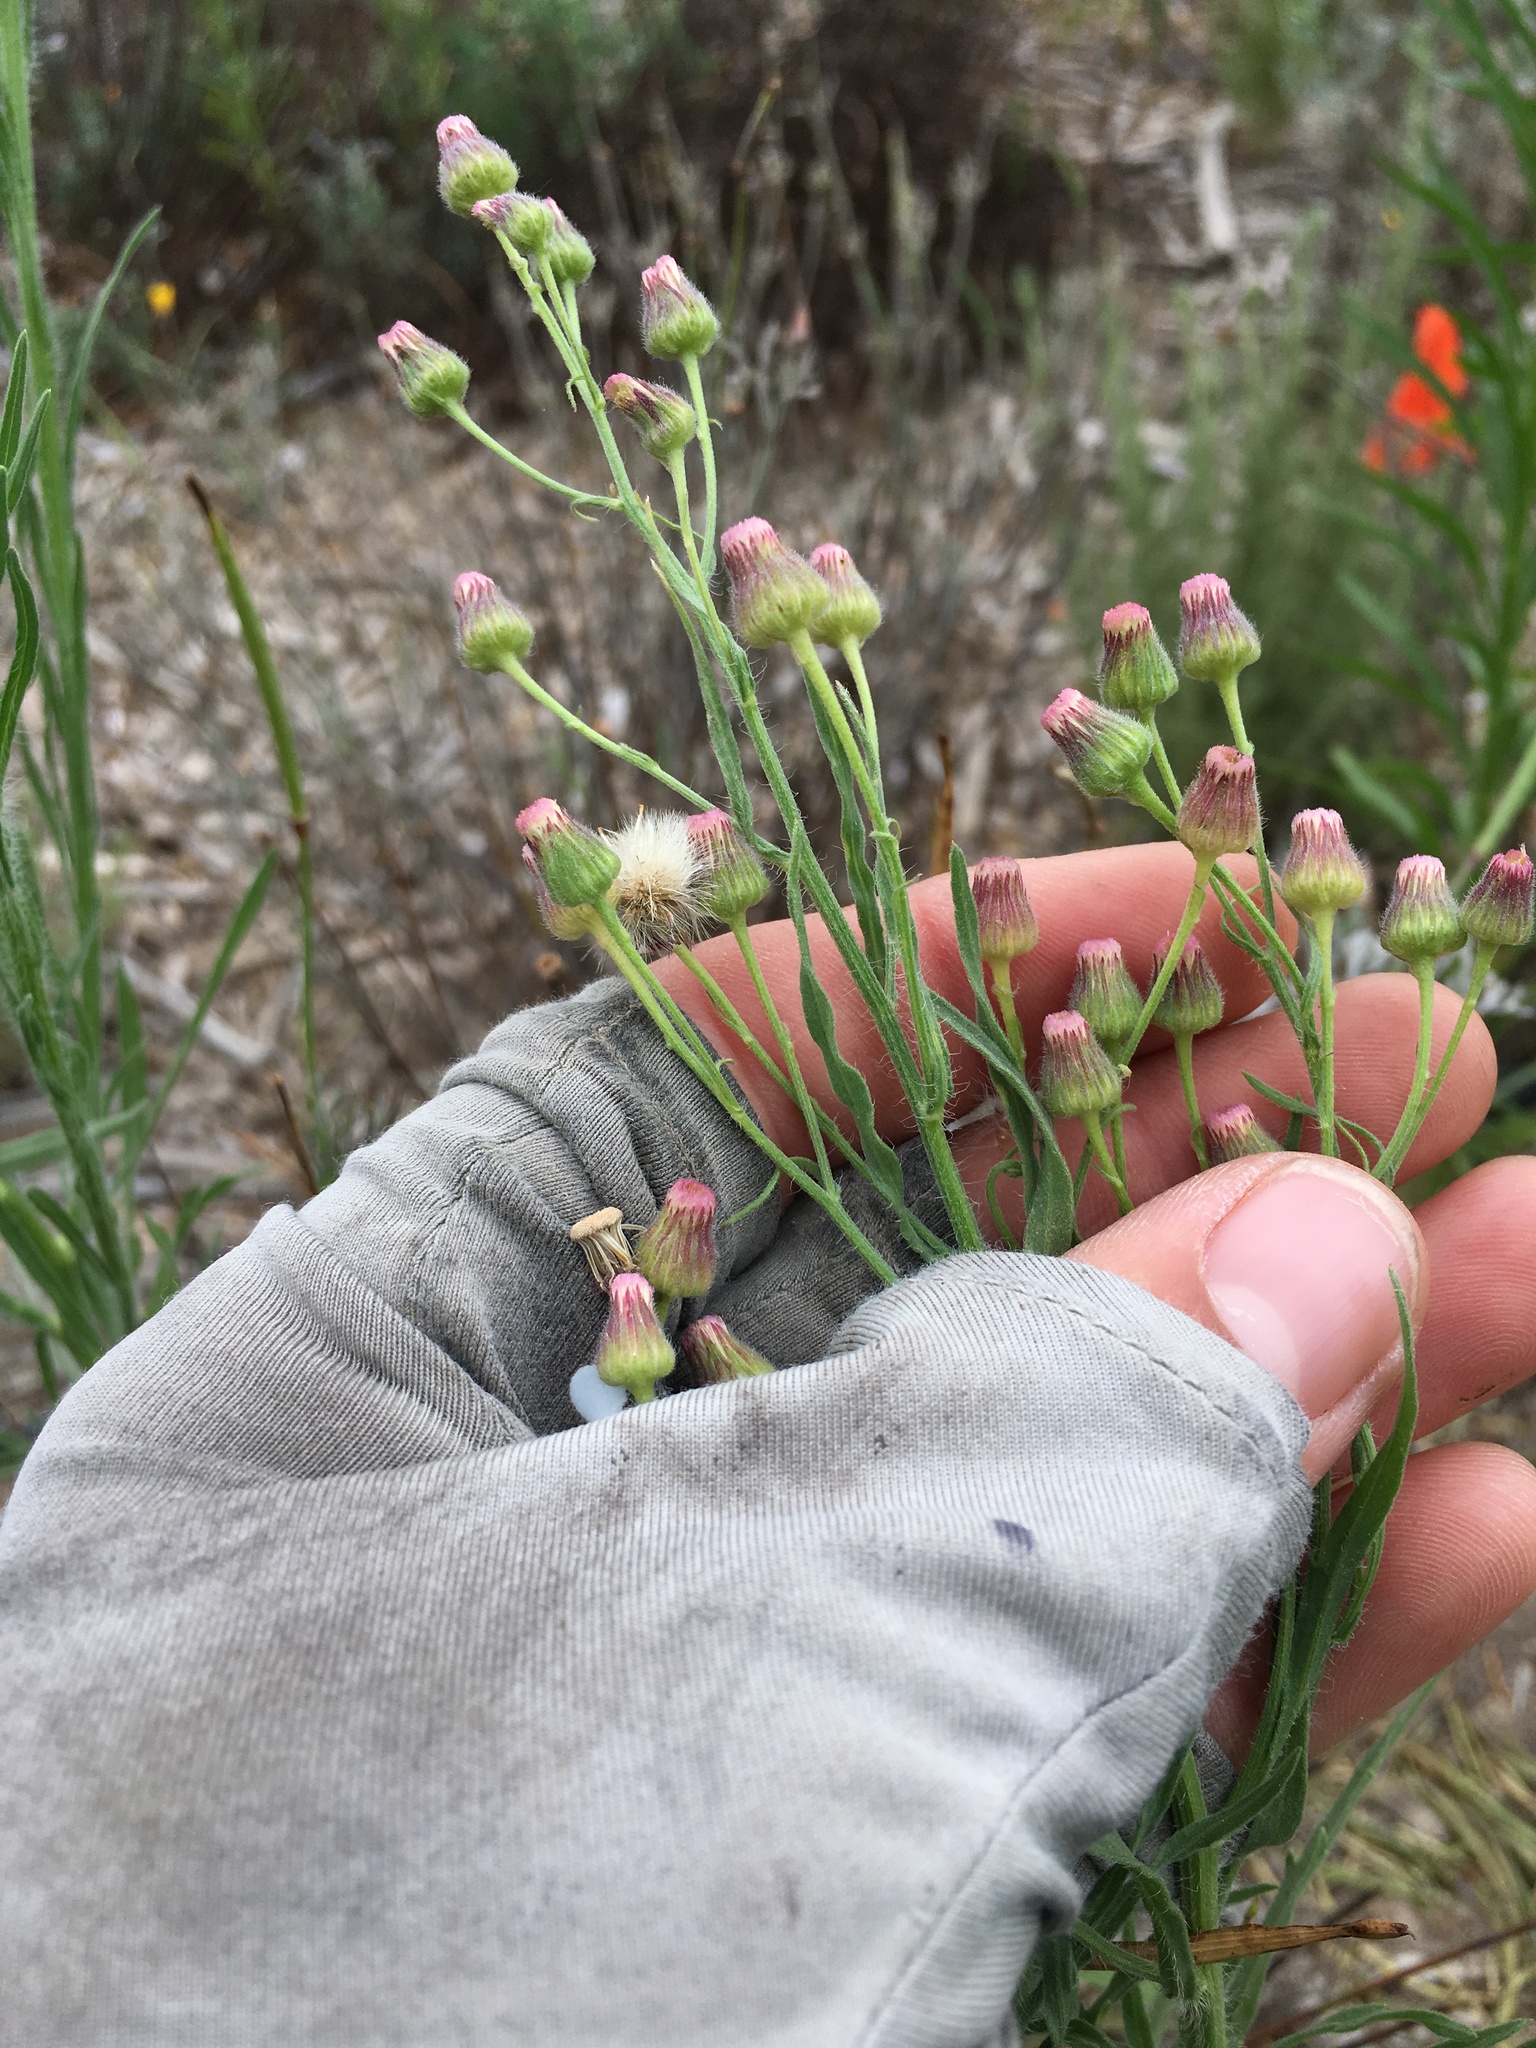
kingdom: Plantae
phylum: Tracheophyta
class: Magnoliopsida
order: Asterales
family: Asteraceae
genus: Erigeron
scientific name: Erigeron bonariensis
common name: Argentine fleabane
